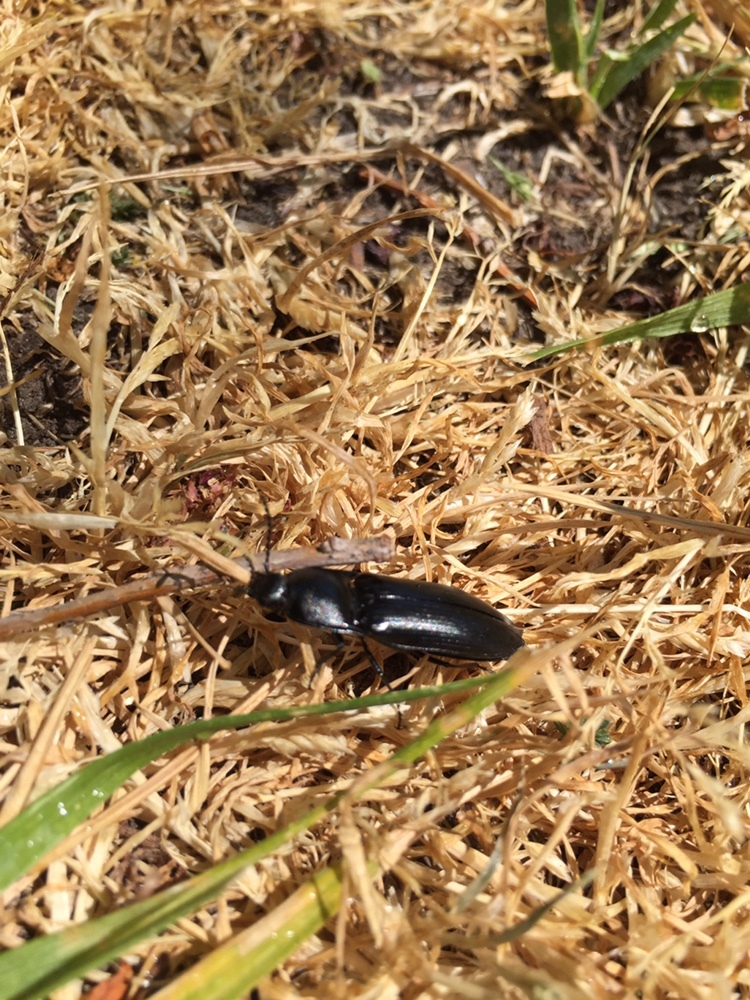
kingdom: Animalia
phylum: Arthropoda
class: Insecta
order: Coleoptera
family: Elateridae
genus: Melanactes
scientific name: Melanactes
